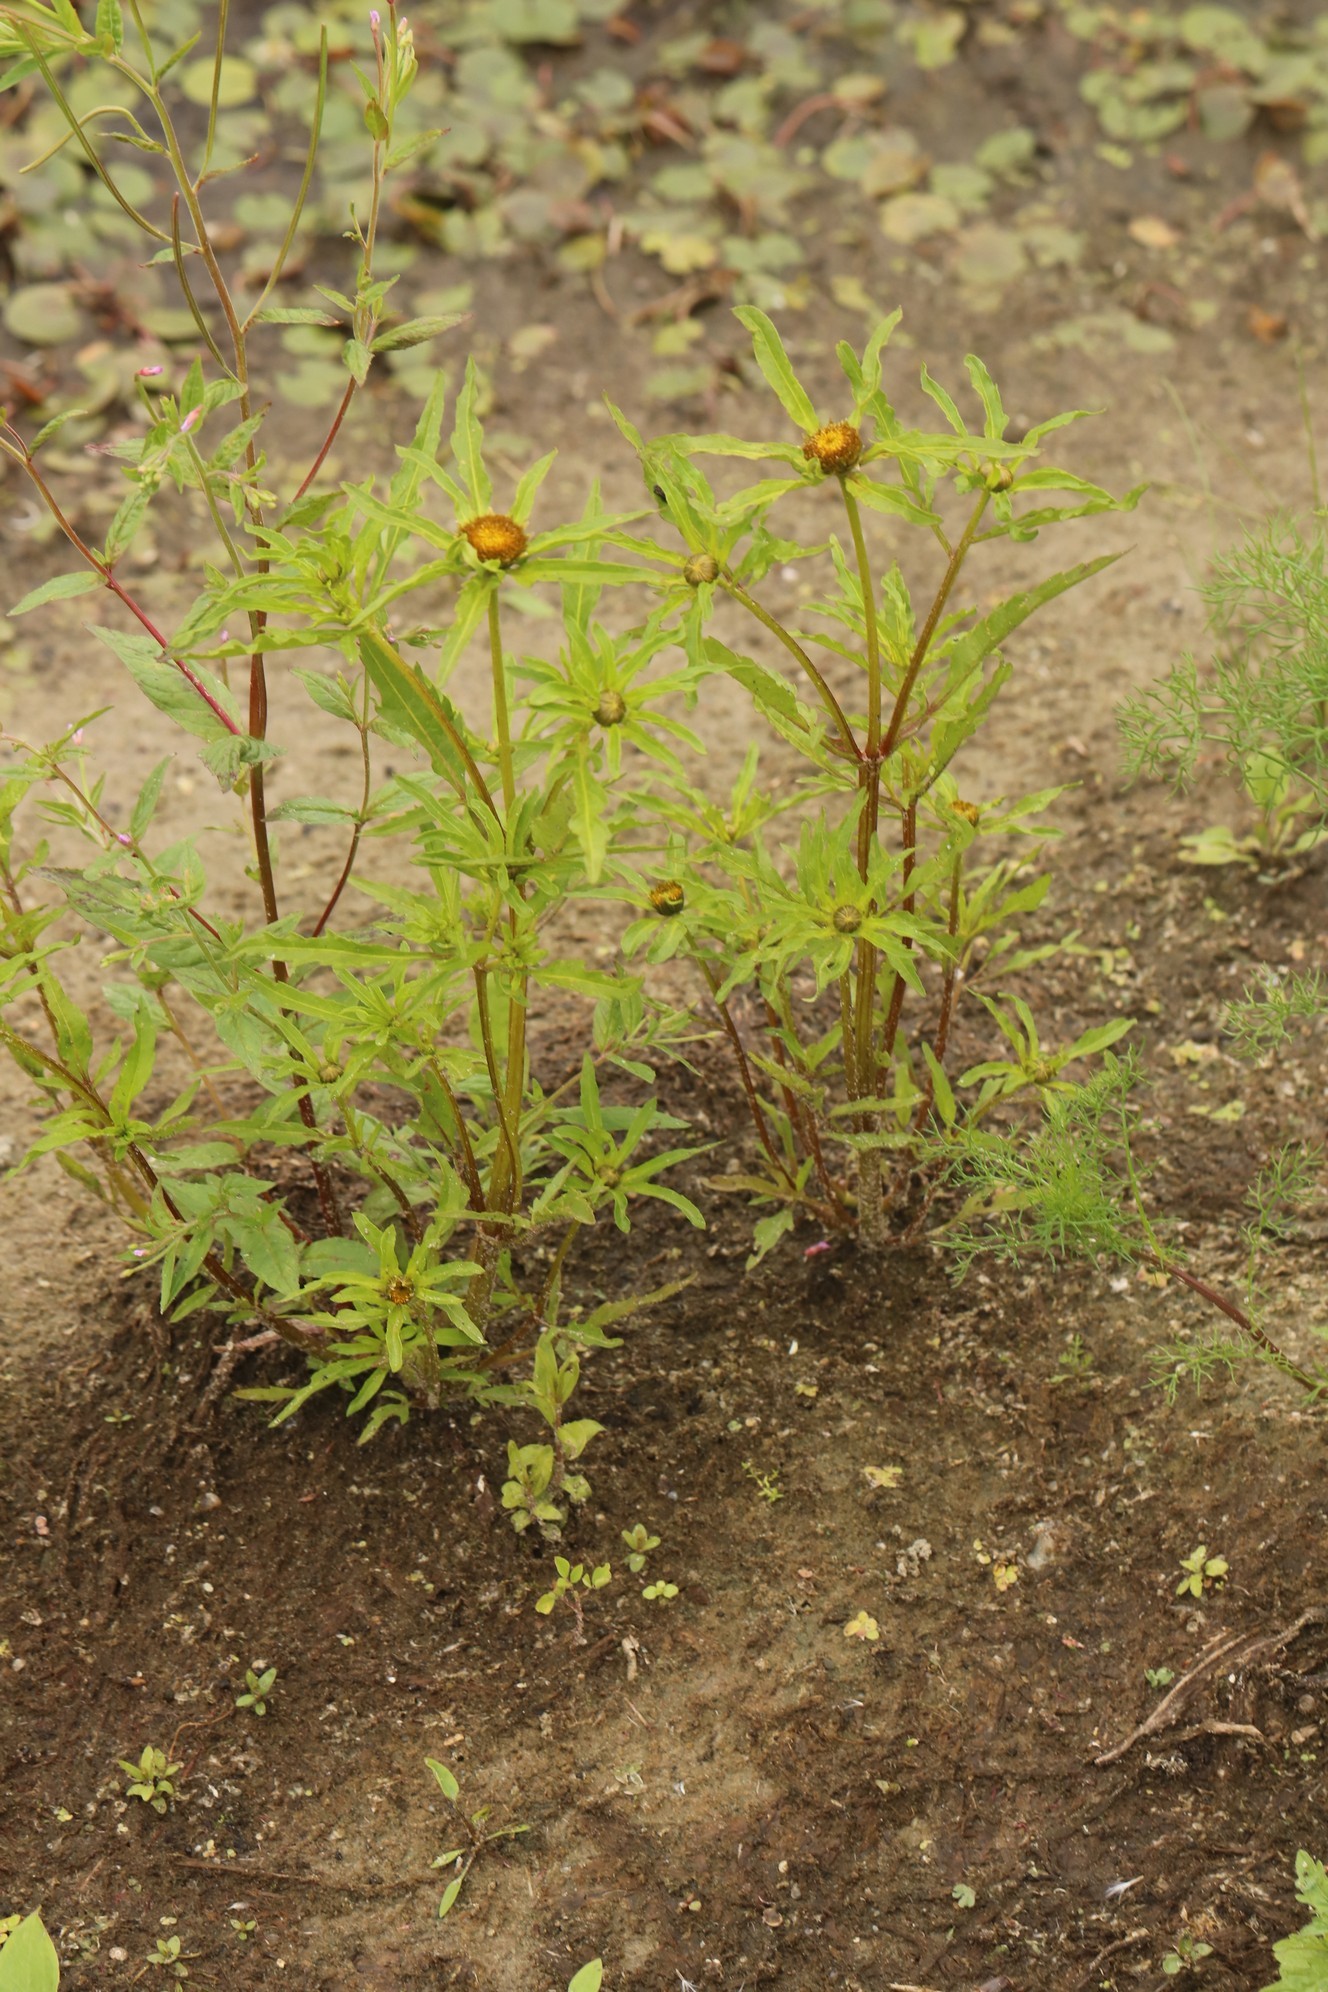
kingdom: Plantae
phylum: Tracheophyta
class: Magnoliopsida
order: Asterales
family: Asteraceae
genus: Bidens
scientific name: Bidens radiata
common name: Radiating bur-marigold
